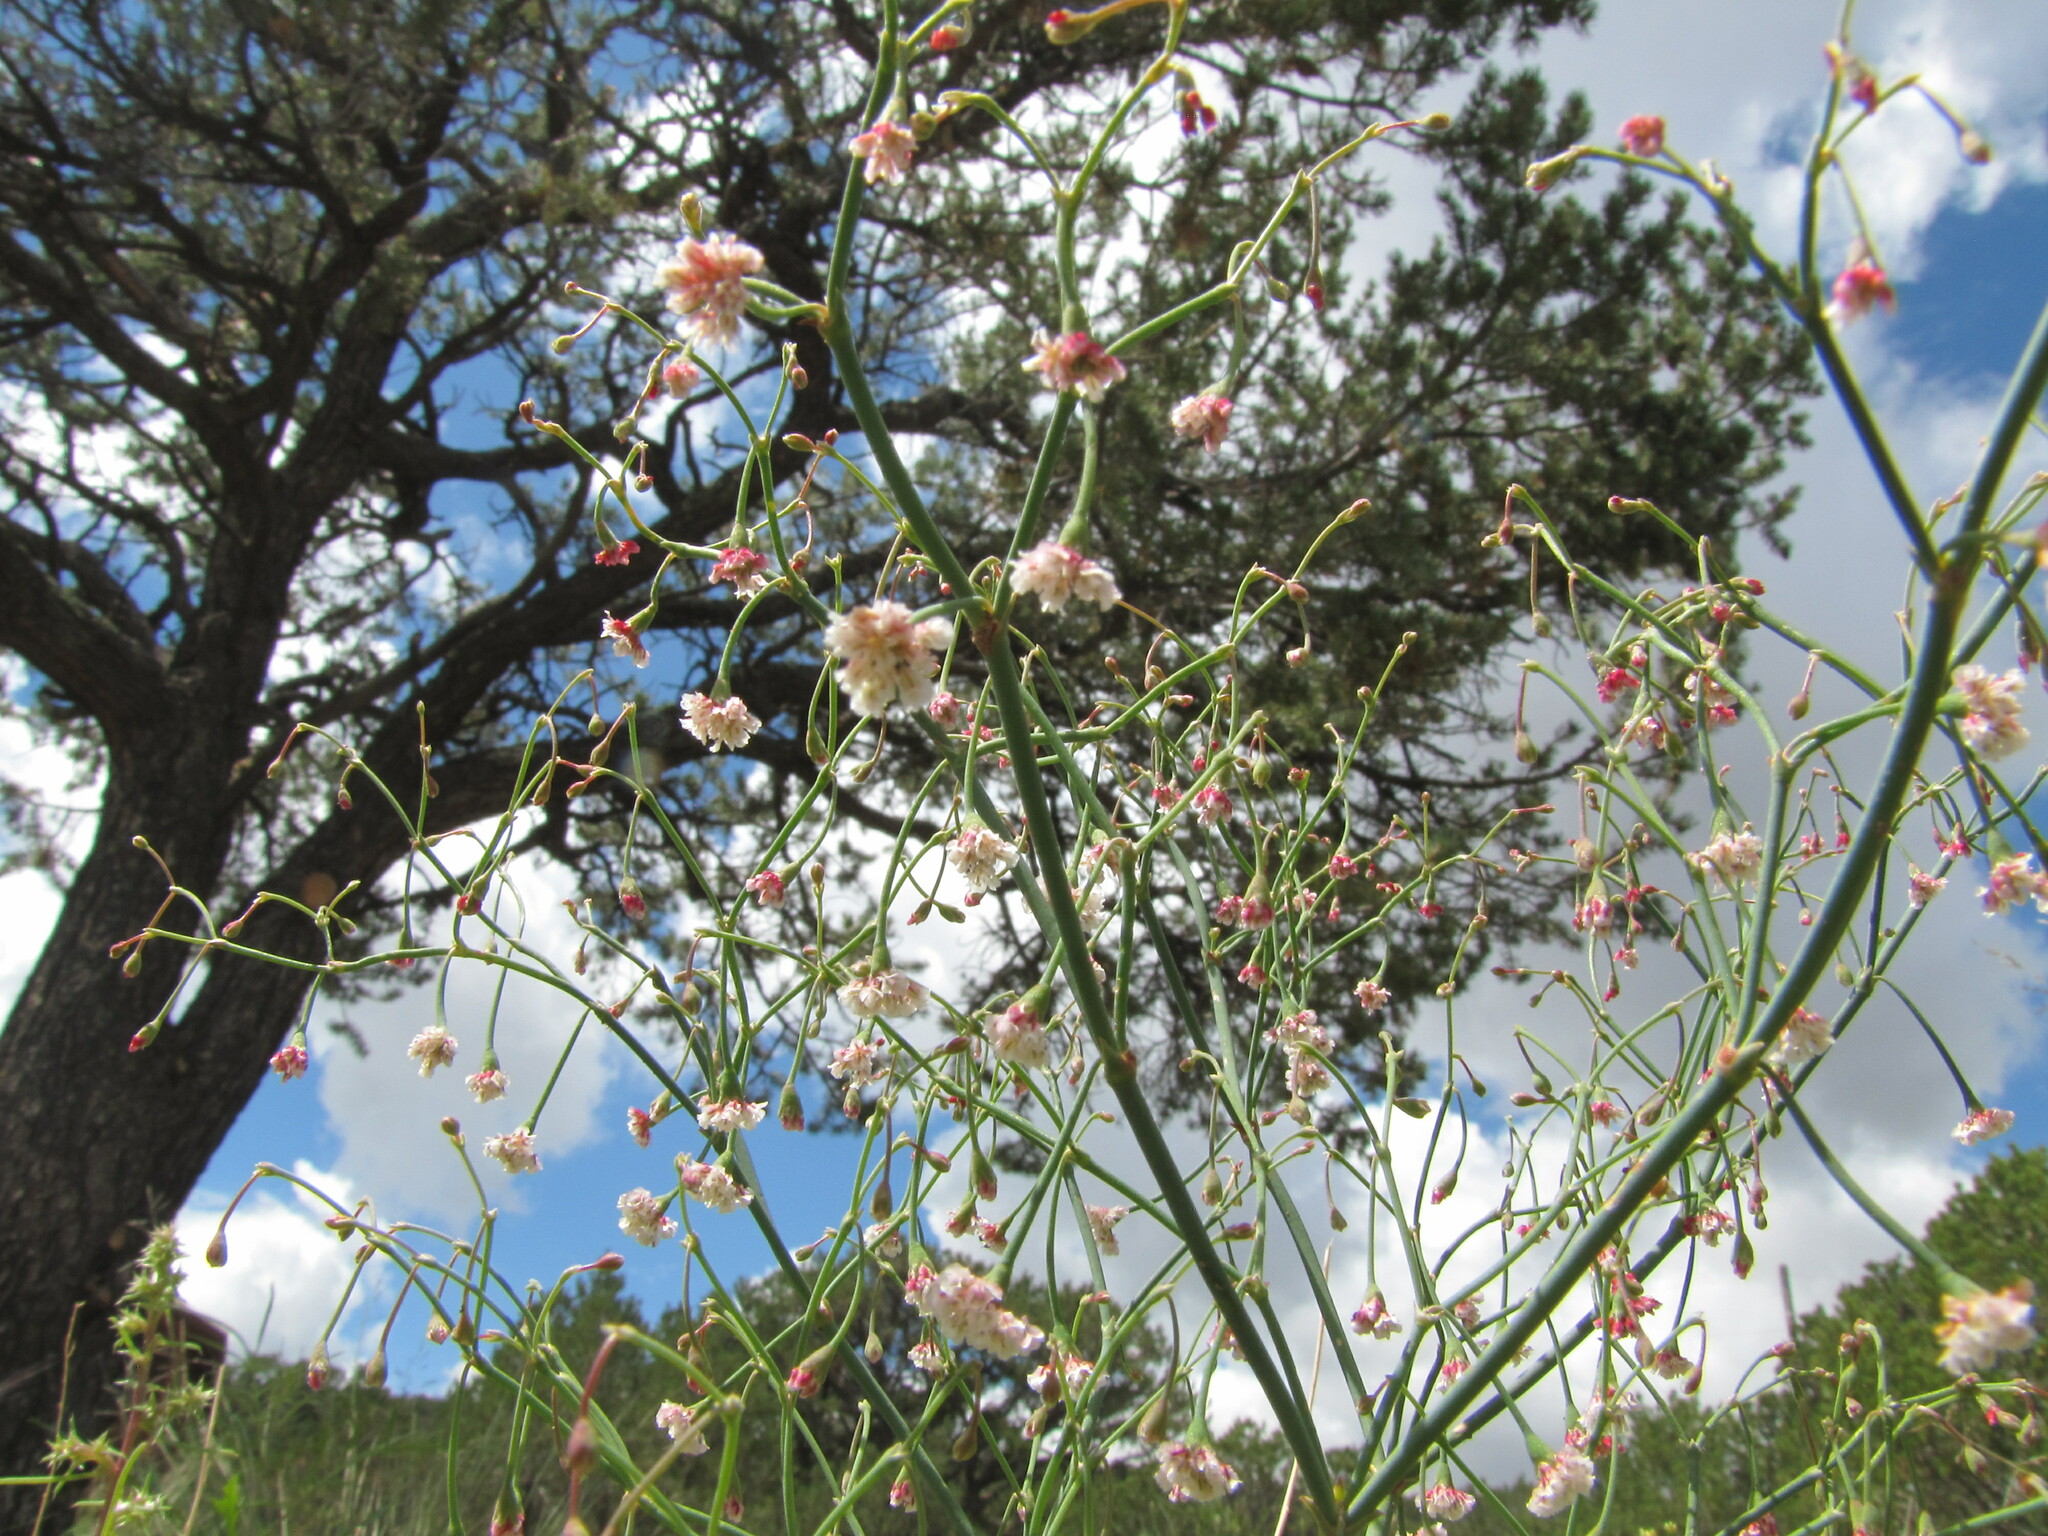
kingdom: Plantae
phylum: Tracheophyta
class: Magnoliopsida
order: Caryophyllales
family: Polygonaceae
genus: Eriogonum
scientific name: Eriogonum cernuum
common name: Nodding wild buckwheat
